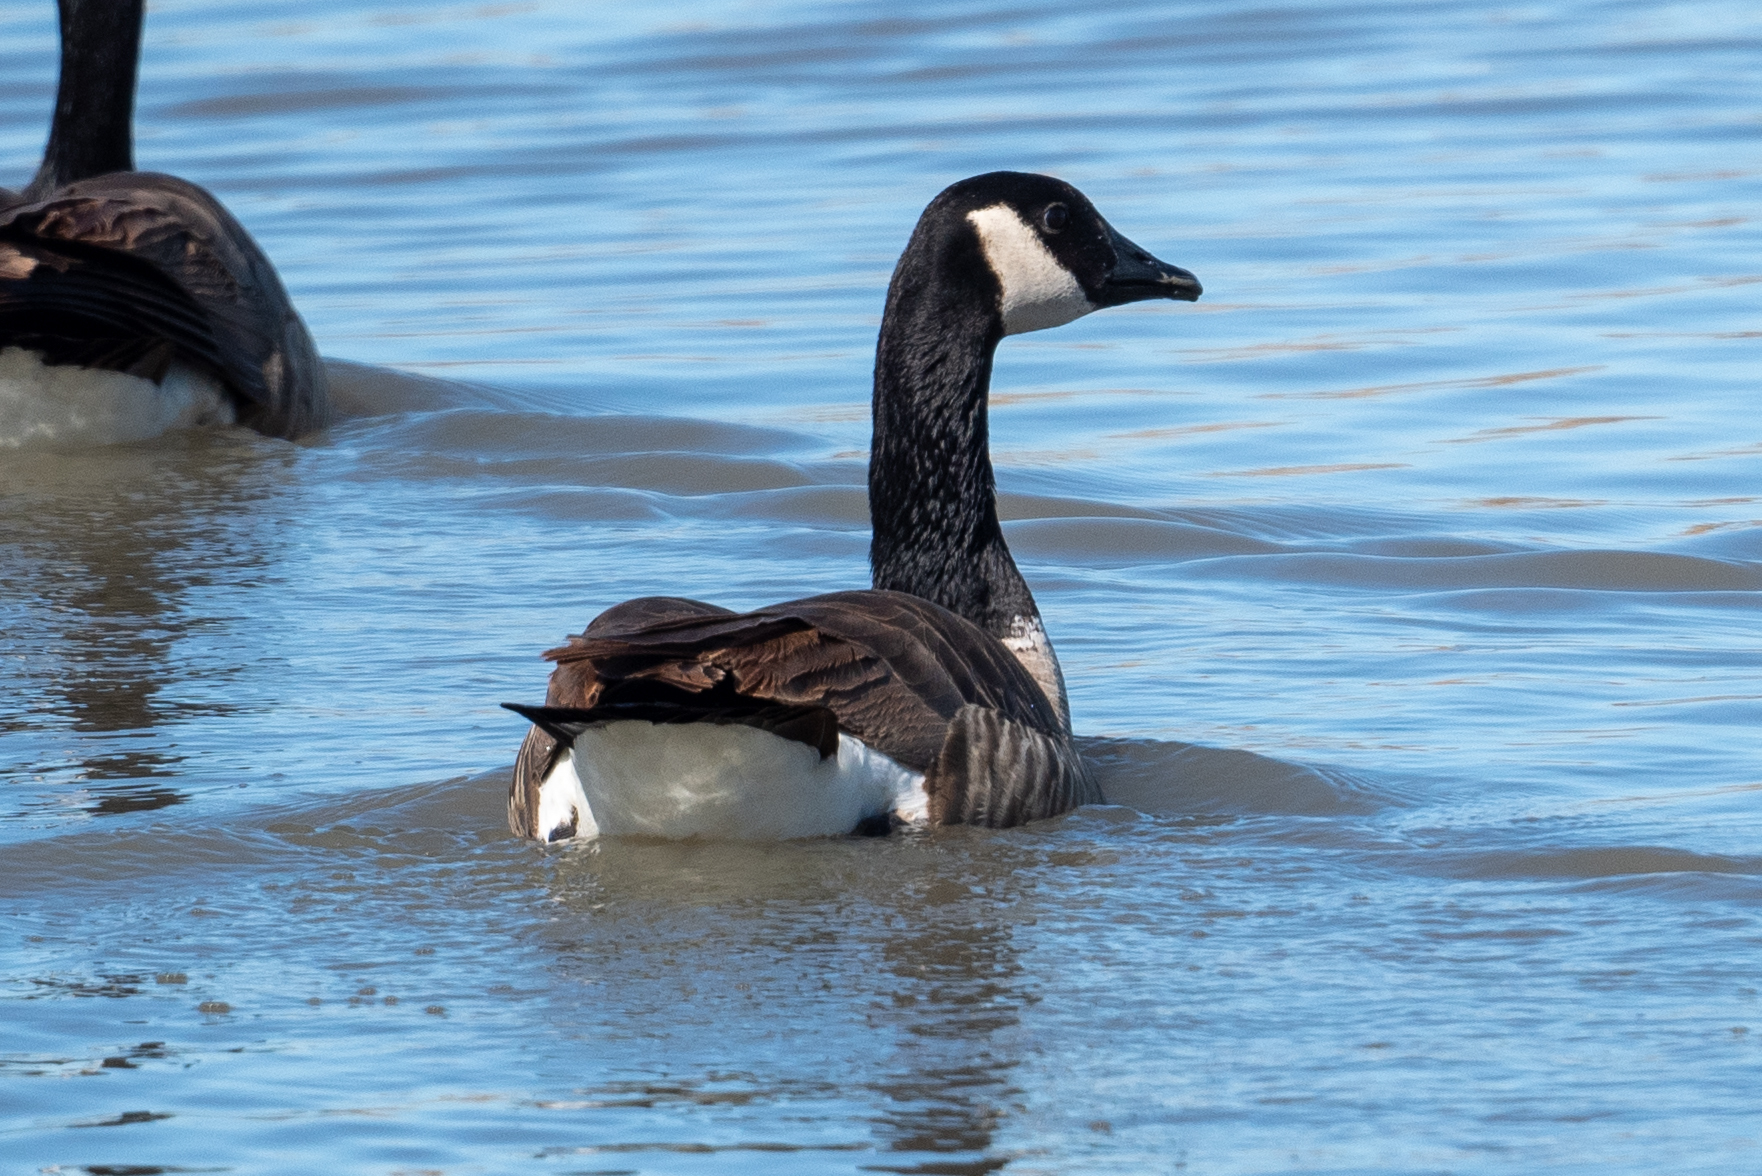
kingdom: Animalia
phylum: Chordata
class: Aves
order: Anseriformes
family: Anatidae
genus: Branta
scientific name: Branta canadensis
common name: Canada goose
